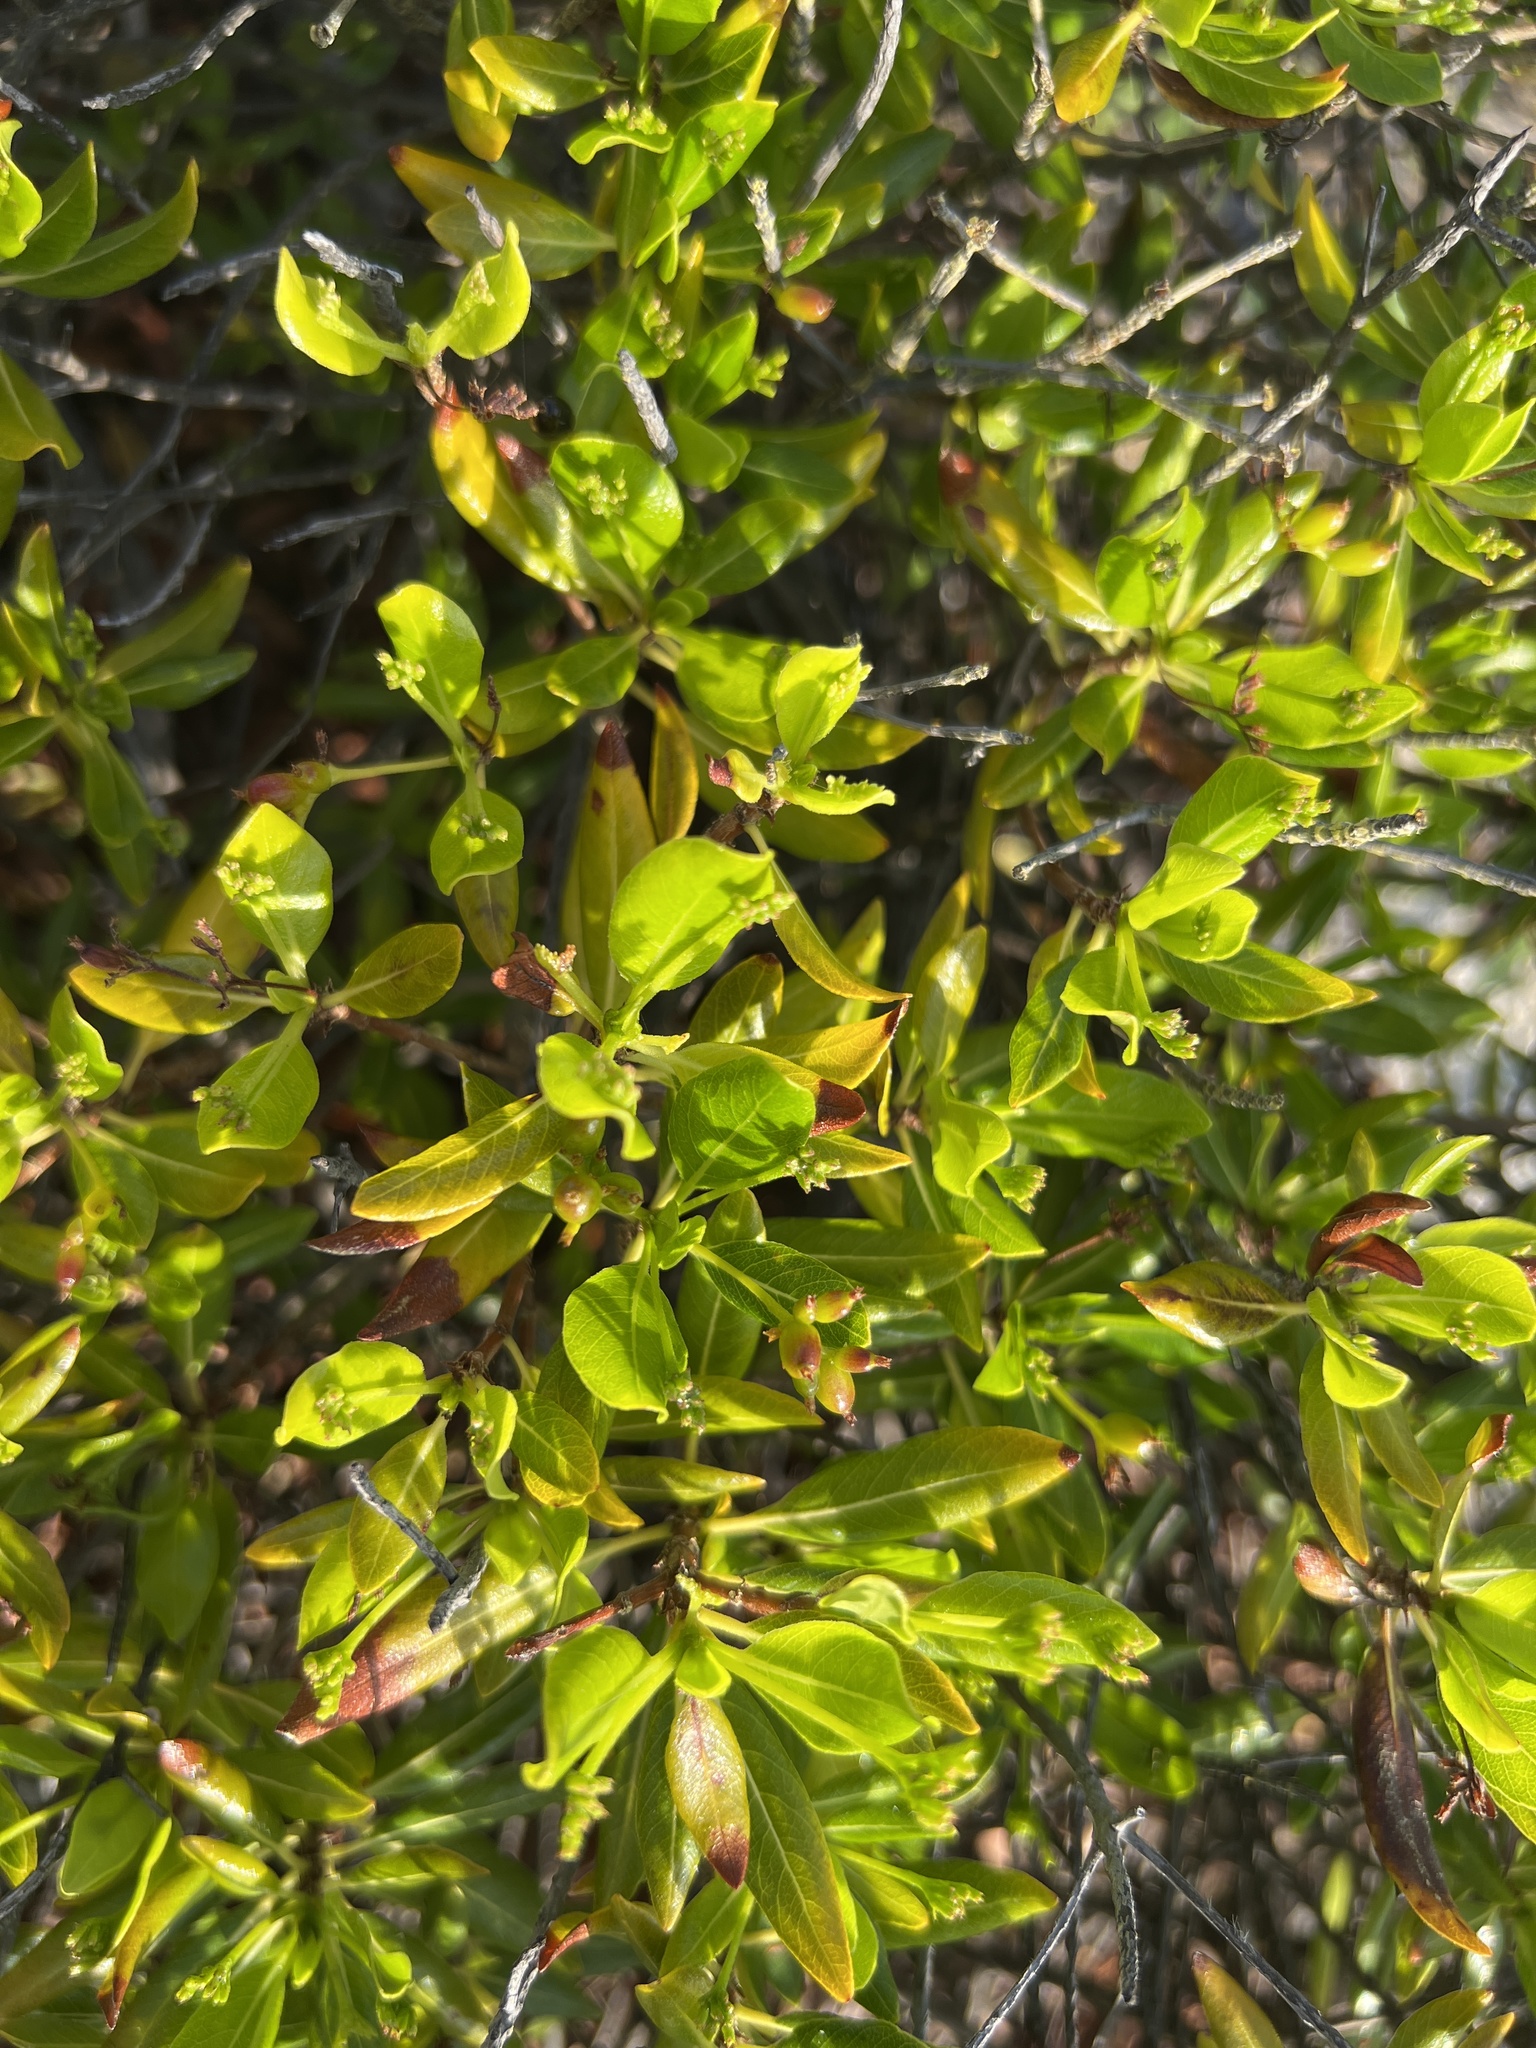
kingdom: Plantae
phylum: Tracheophyta
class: Magnoliopsida
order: Gentianales
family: Rubiaceae
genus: Stenostomum
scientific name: Stenostomum acutatum
